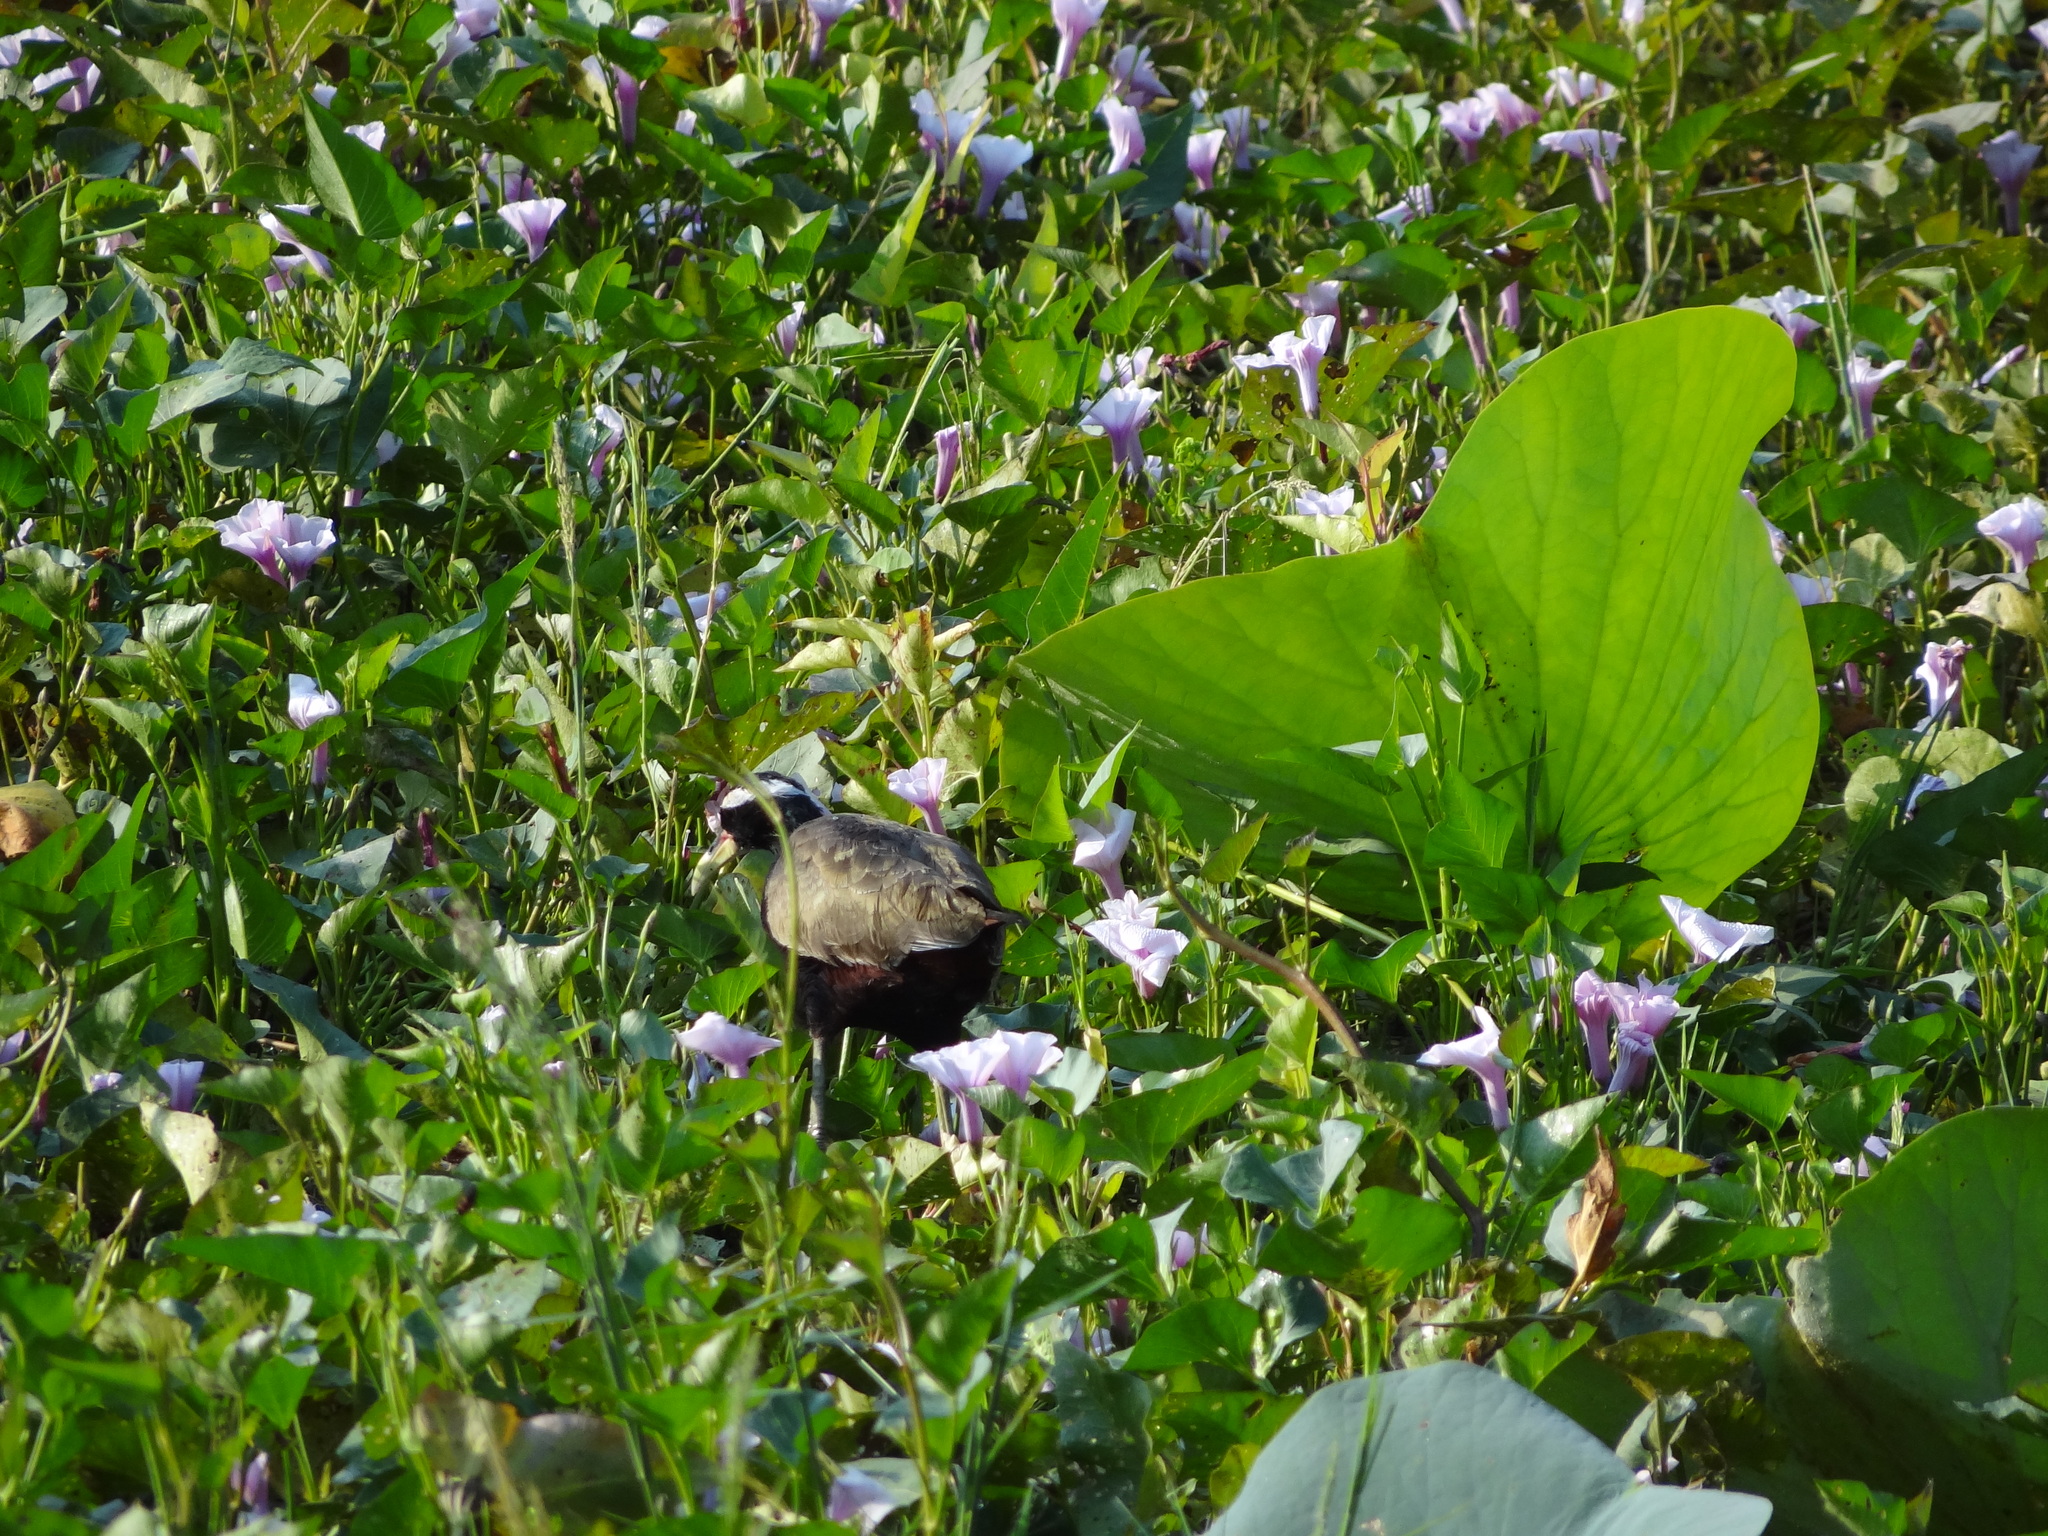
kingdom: Animalia
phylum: Chordata
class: Aves
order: Charadriiformes
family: Jacanidae
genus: Metopidius
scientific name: Metopidius indicus
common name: Bronze-winged jacana
